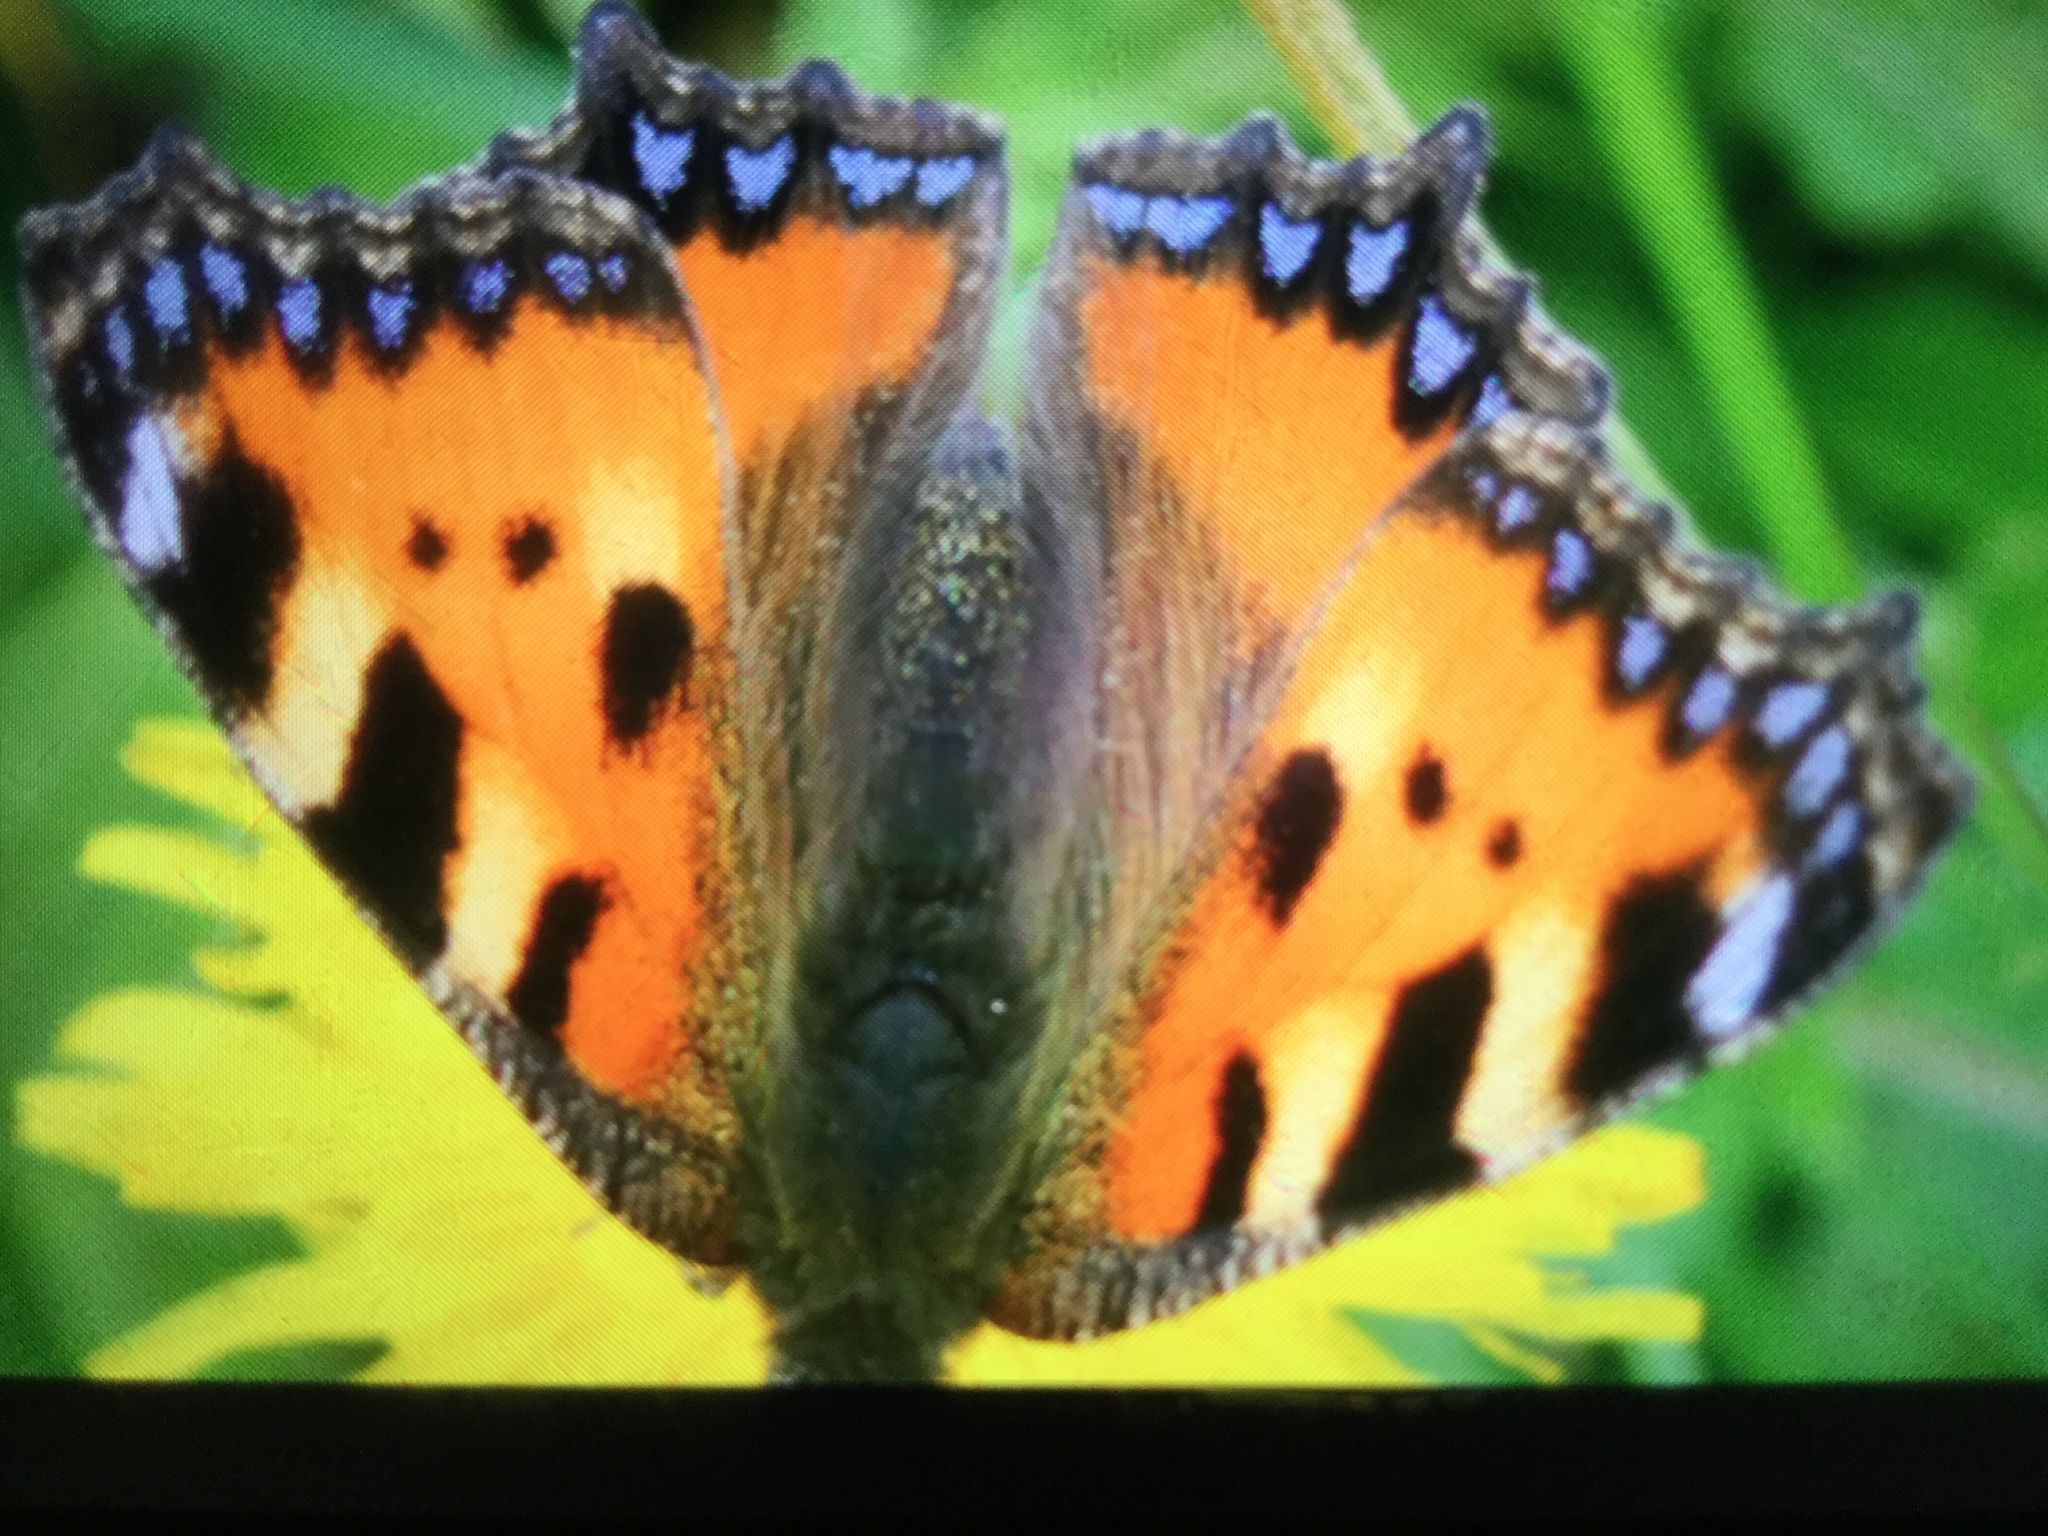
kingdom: Animalia
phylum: Arthropoda
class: Insecta
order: Lepidoptera
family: Nymphalidae
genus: Aglais
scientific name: Aglais urticae
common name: Small tortoiseshell
